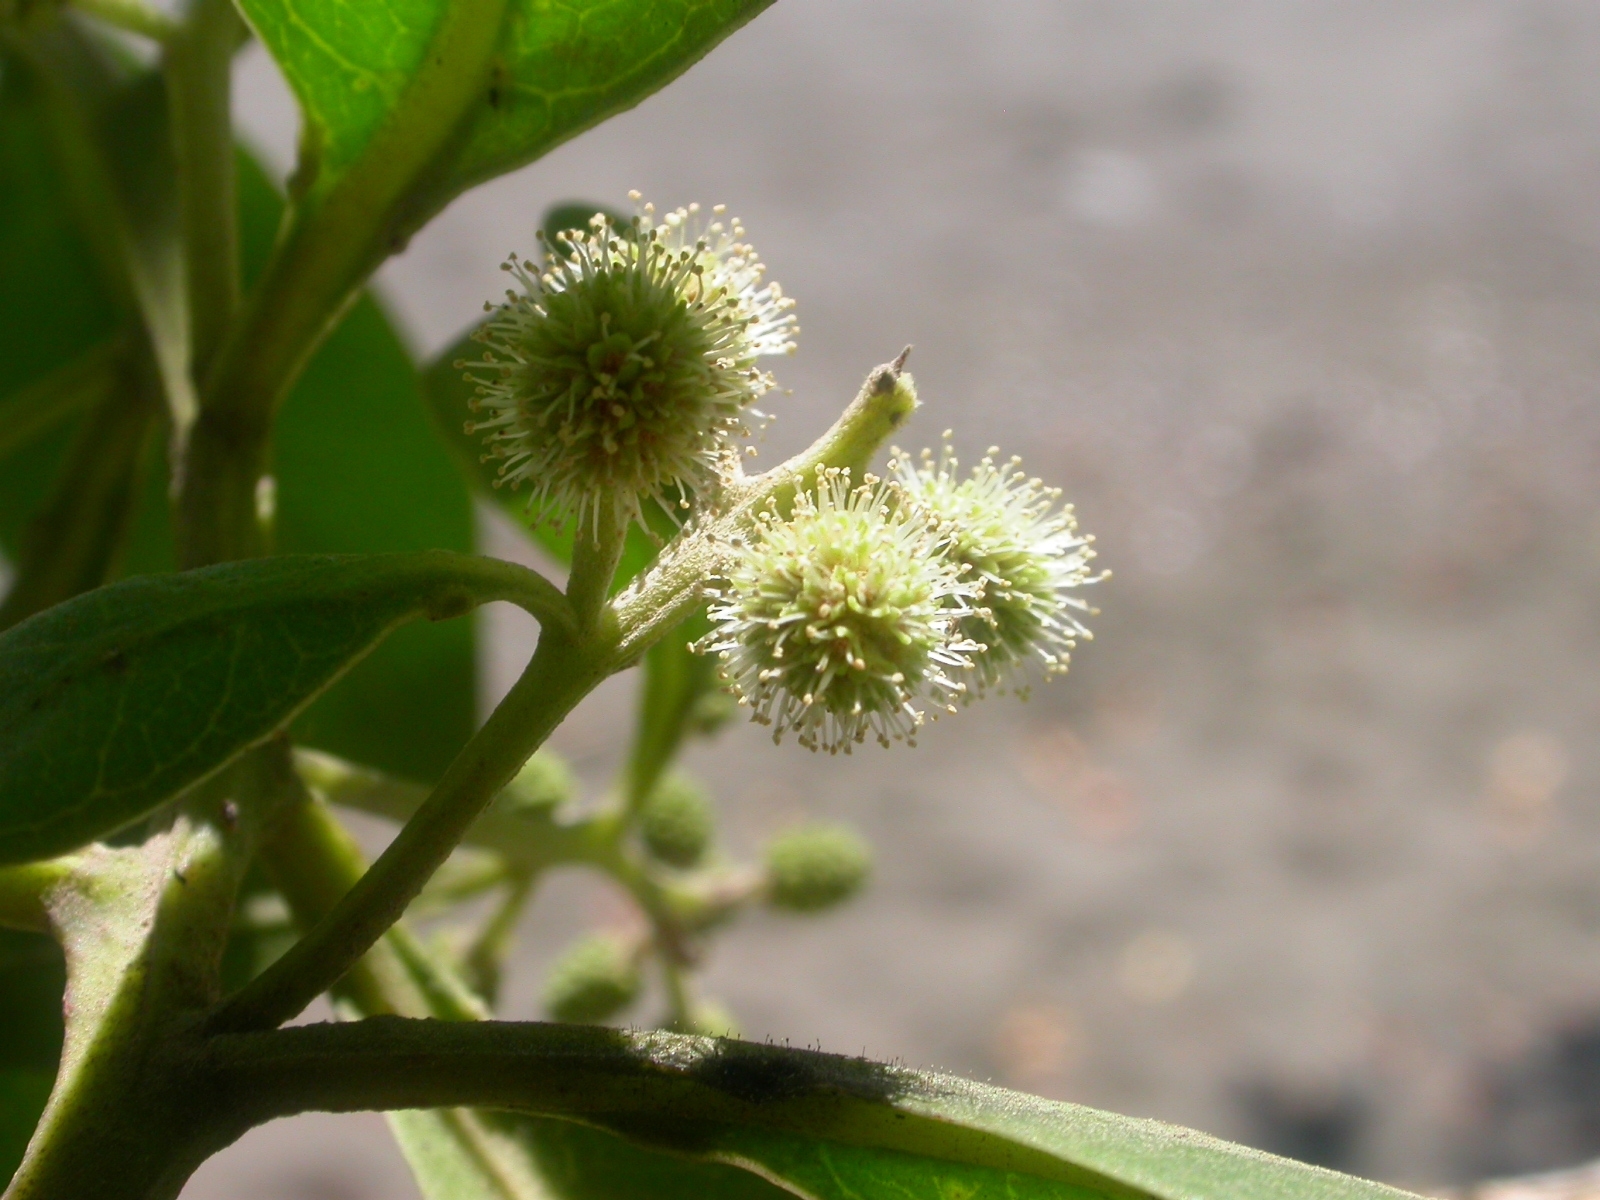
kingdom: Plantae
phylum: Tracheophyta
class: Magnoliopsida
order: Myrtales
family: Combretaceae
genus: Conocarpus
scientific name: Conocarpus erectus
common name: Button mangrove
